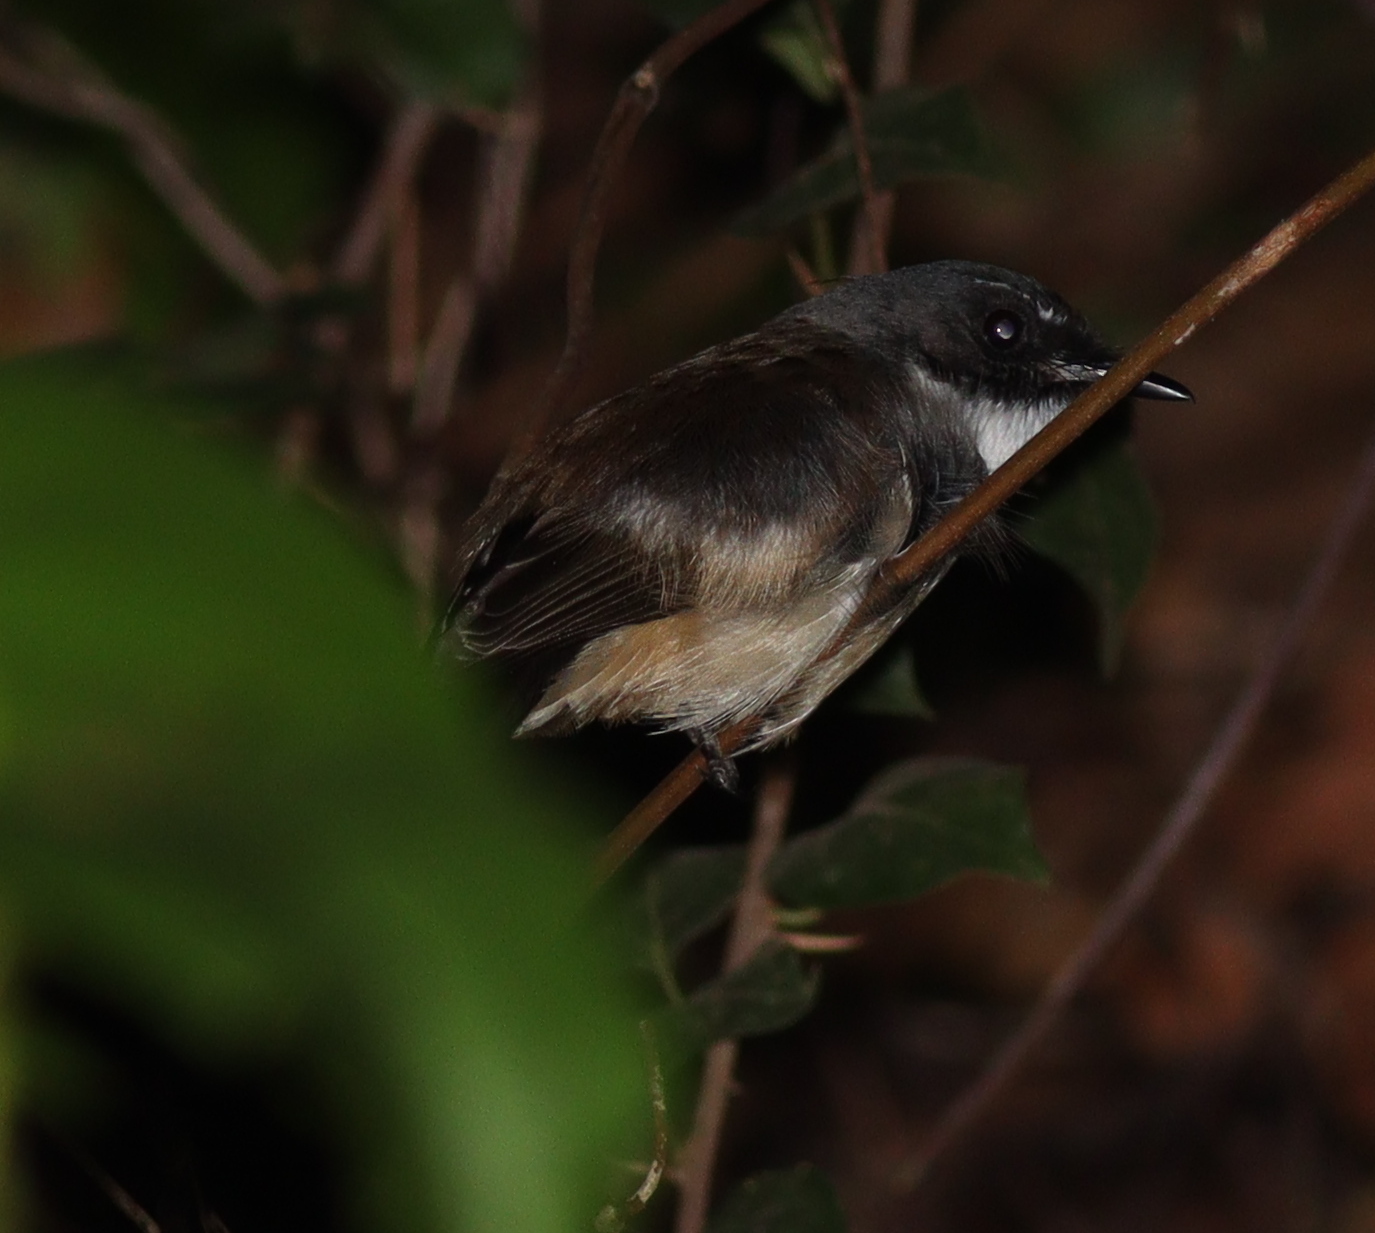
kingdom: Animalia
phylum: Chordata
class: Aves
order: Passeriformes
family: Rhipiduridae
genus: Rhipidura
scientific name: Rhipidura javanica
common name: Pied fantail
